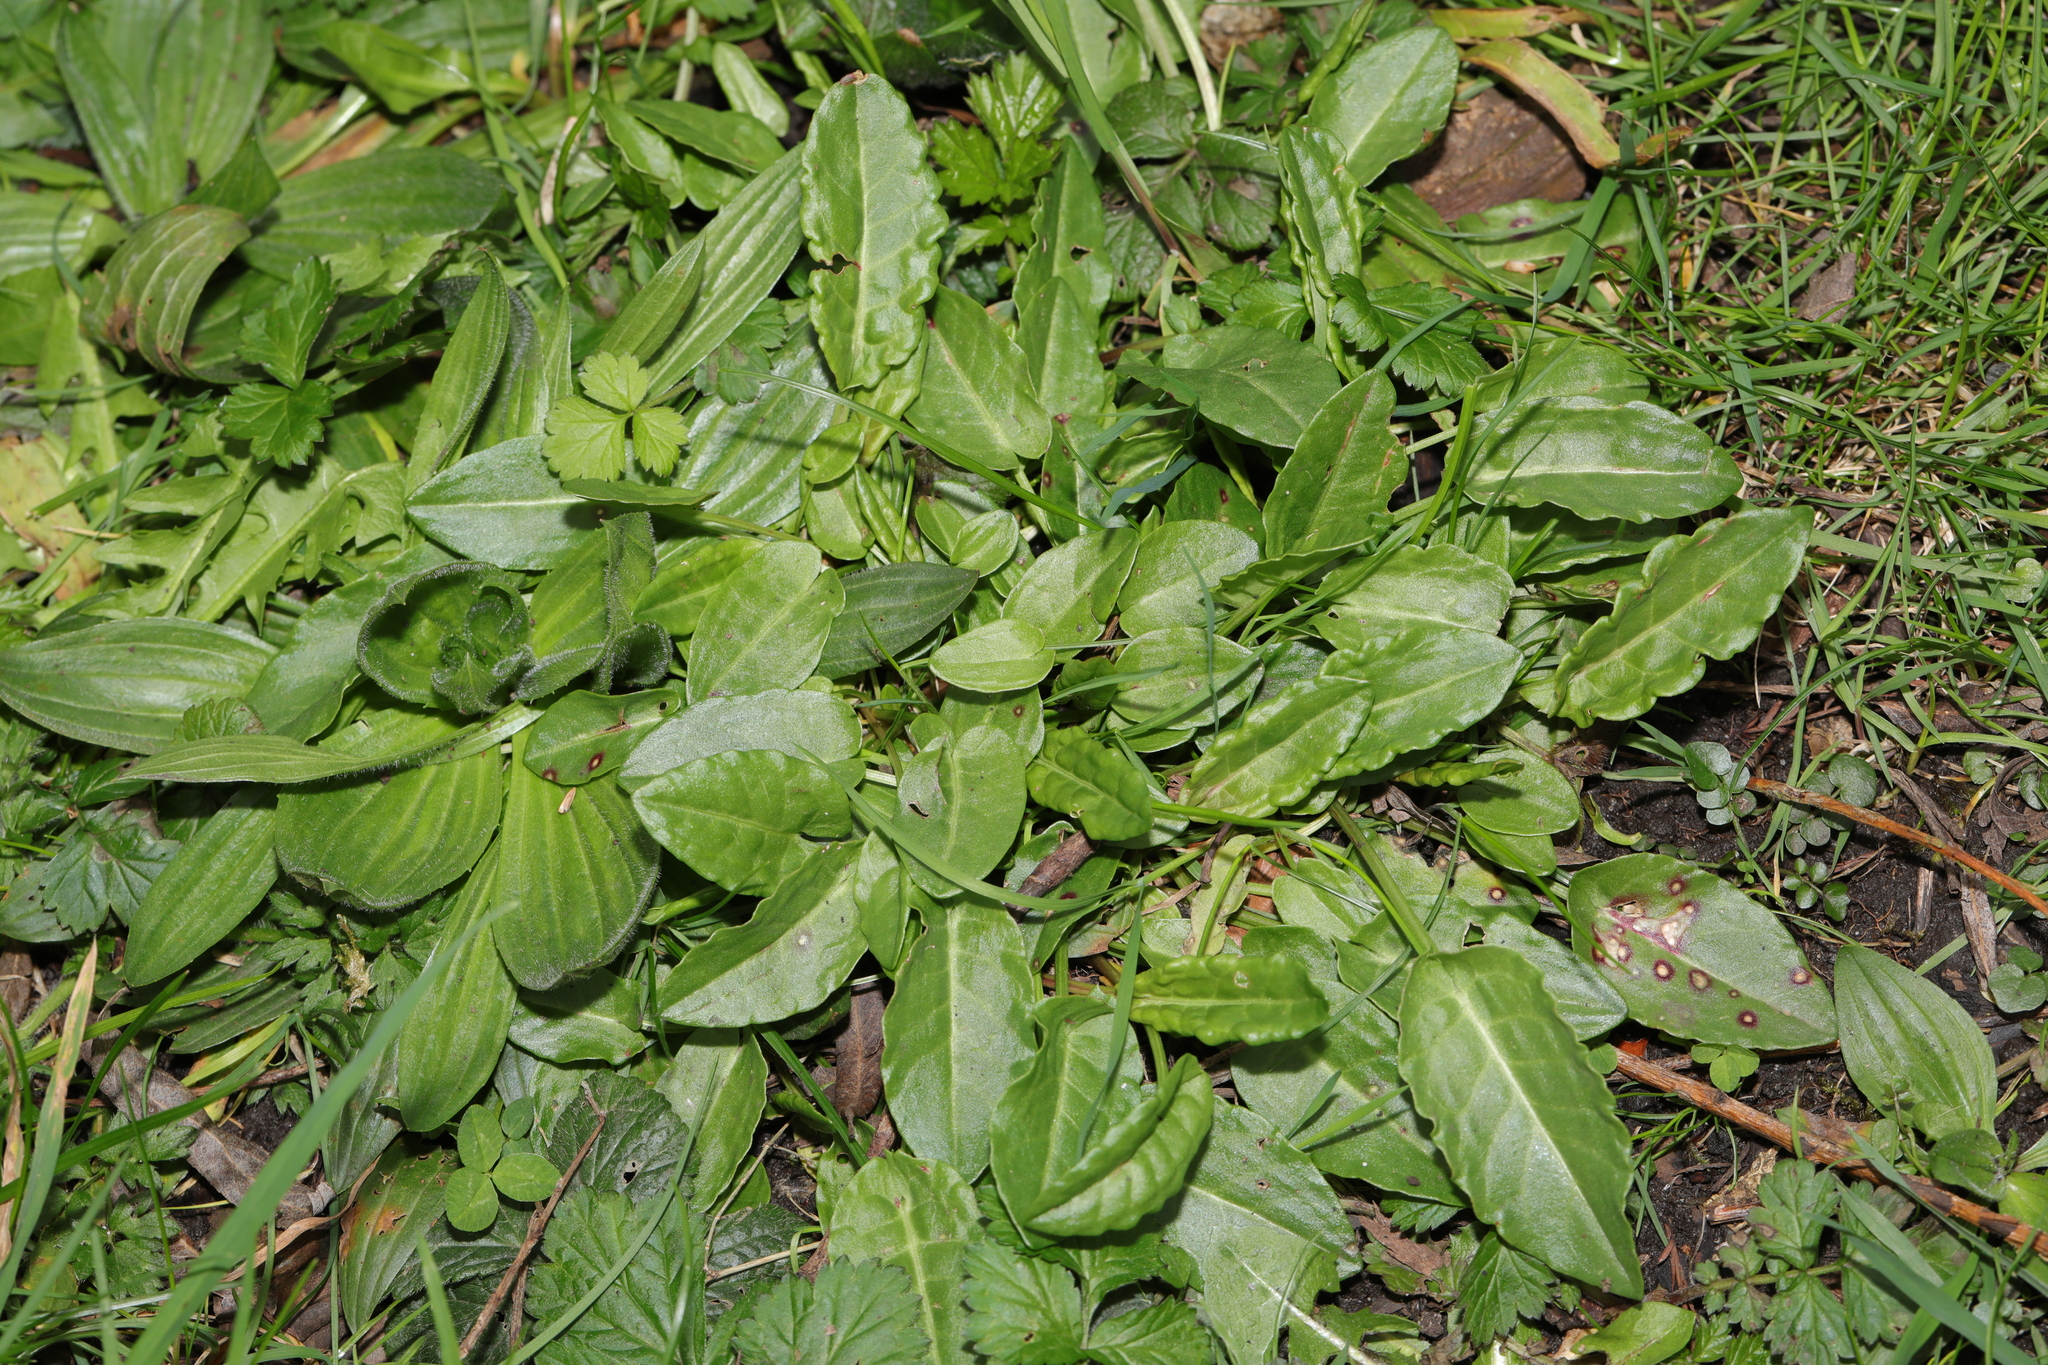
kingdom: Plantae
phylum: Tracheophyta
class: Magnoliopsida
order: Caryophyllales
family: Polygonaceae
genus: Rumex
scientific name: Rumex acetosa
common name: Garden sorrel
